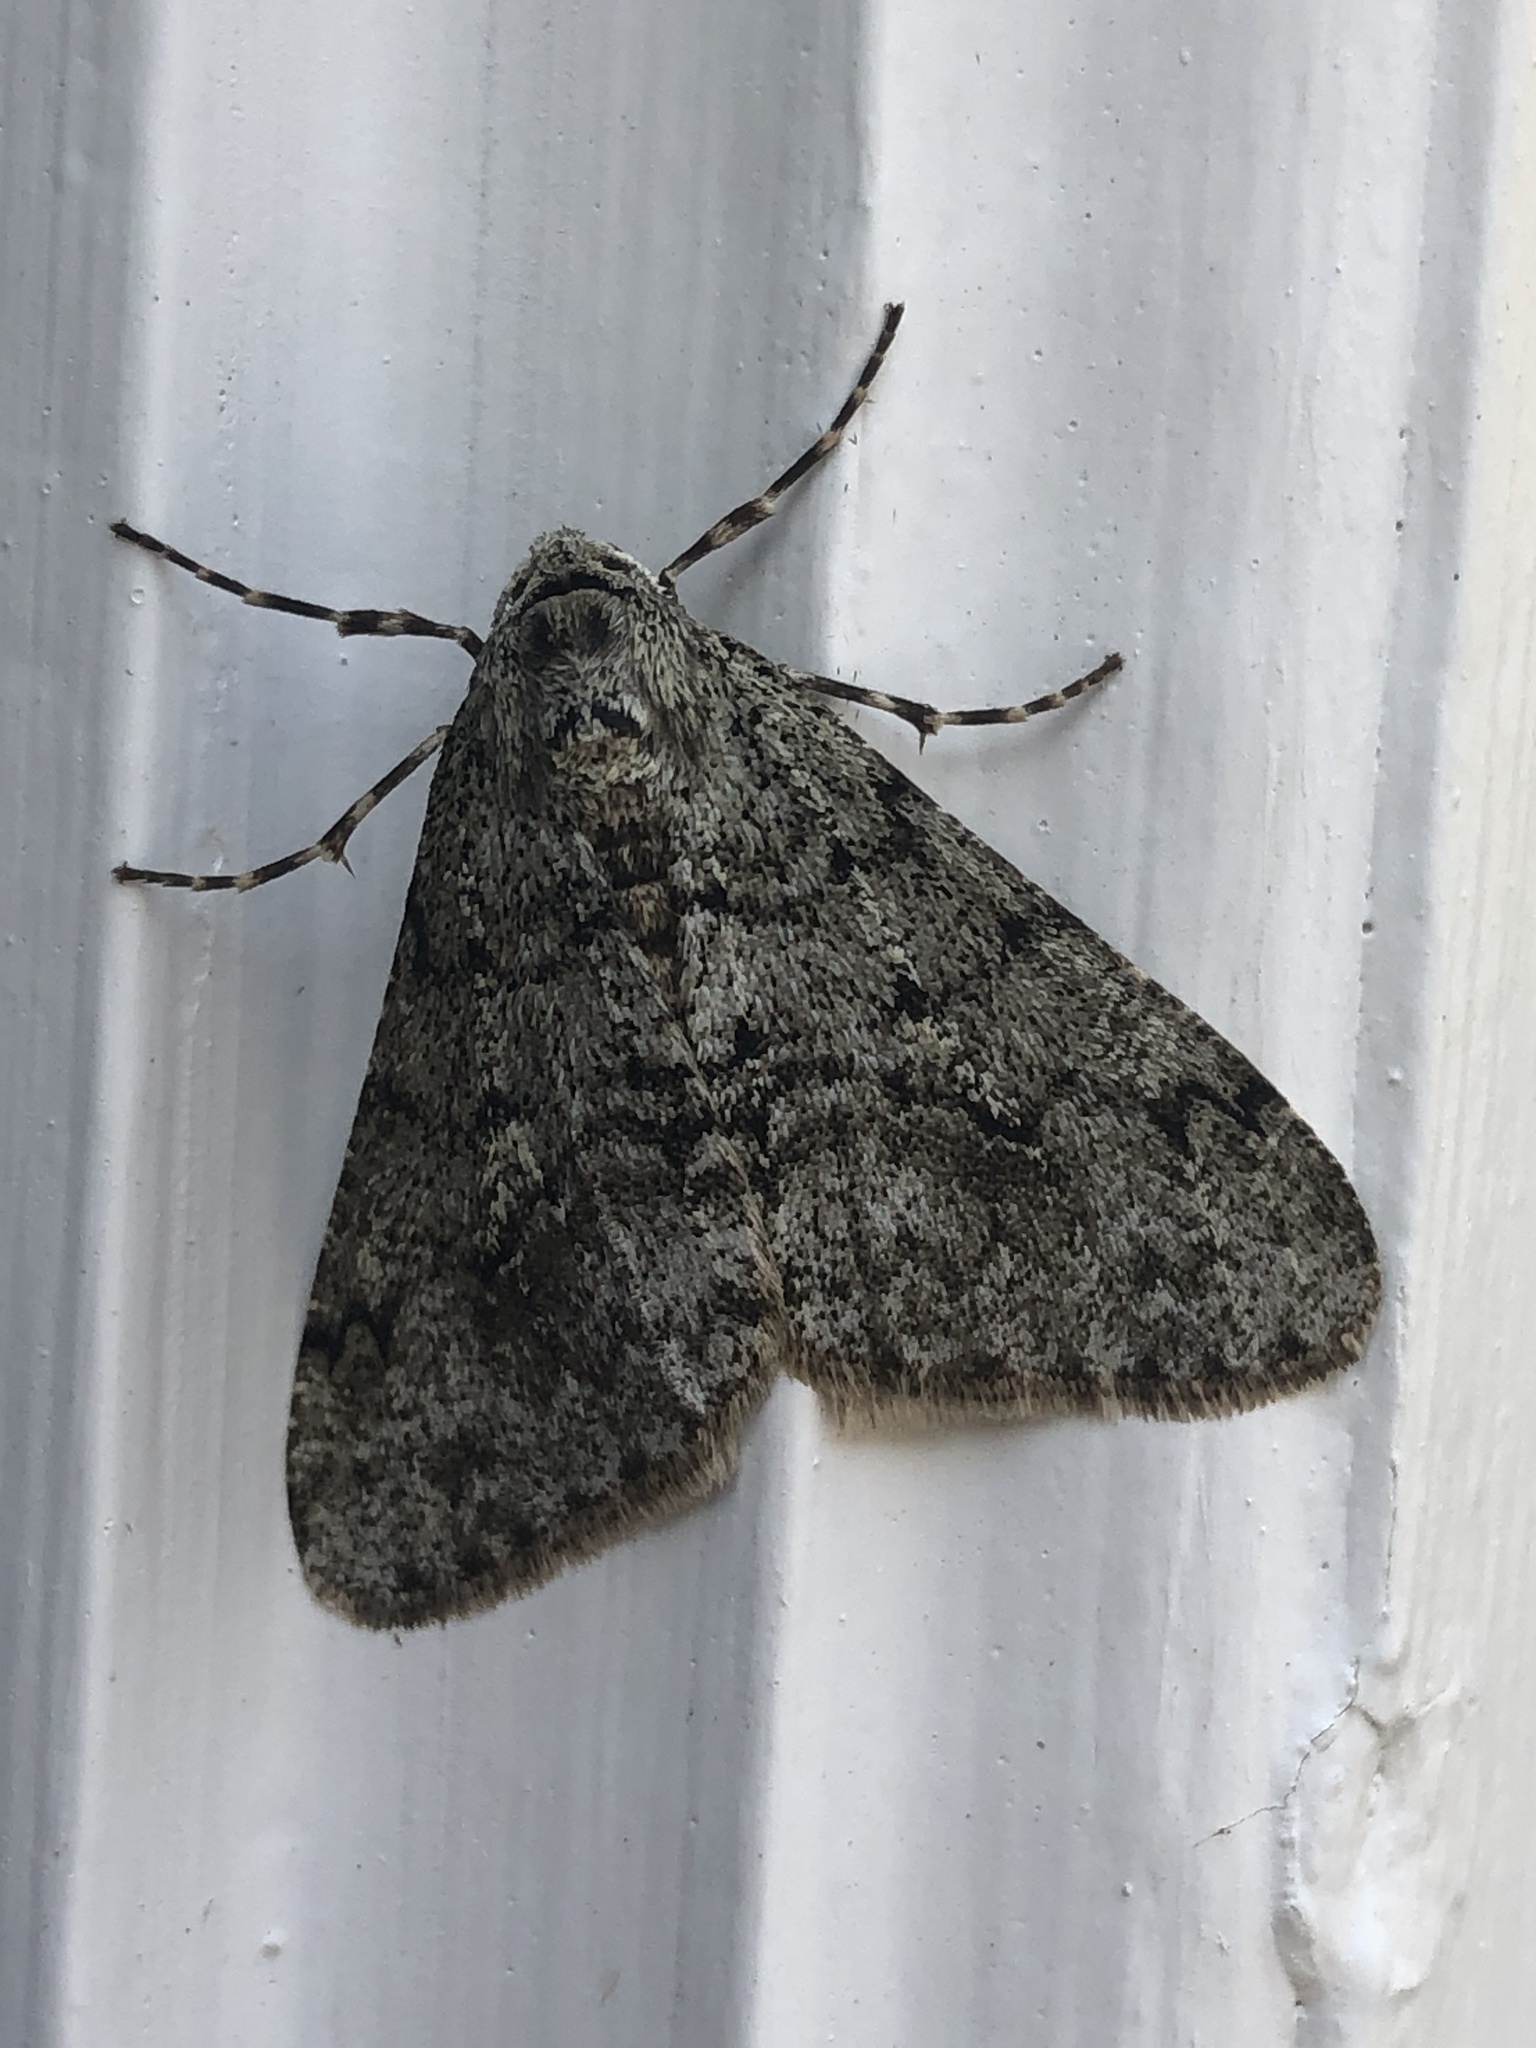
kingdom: Animalia
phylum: Arthropoda
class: Insecta
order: Lepidoptera
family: Geometridae
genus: Phigalia
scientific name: Phigalia strigataria
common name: Small phigalia
